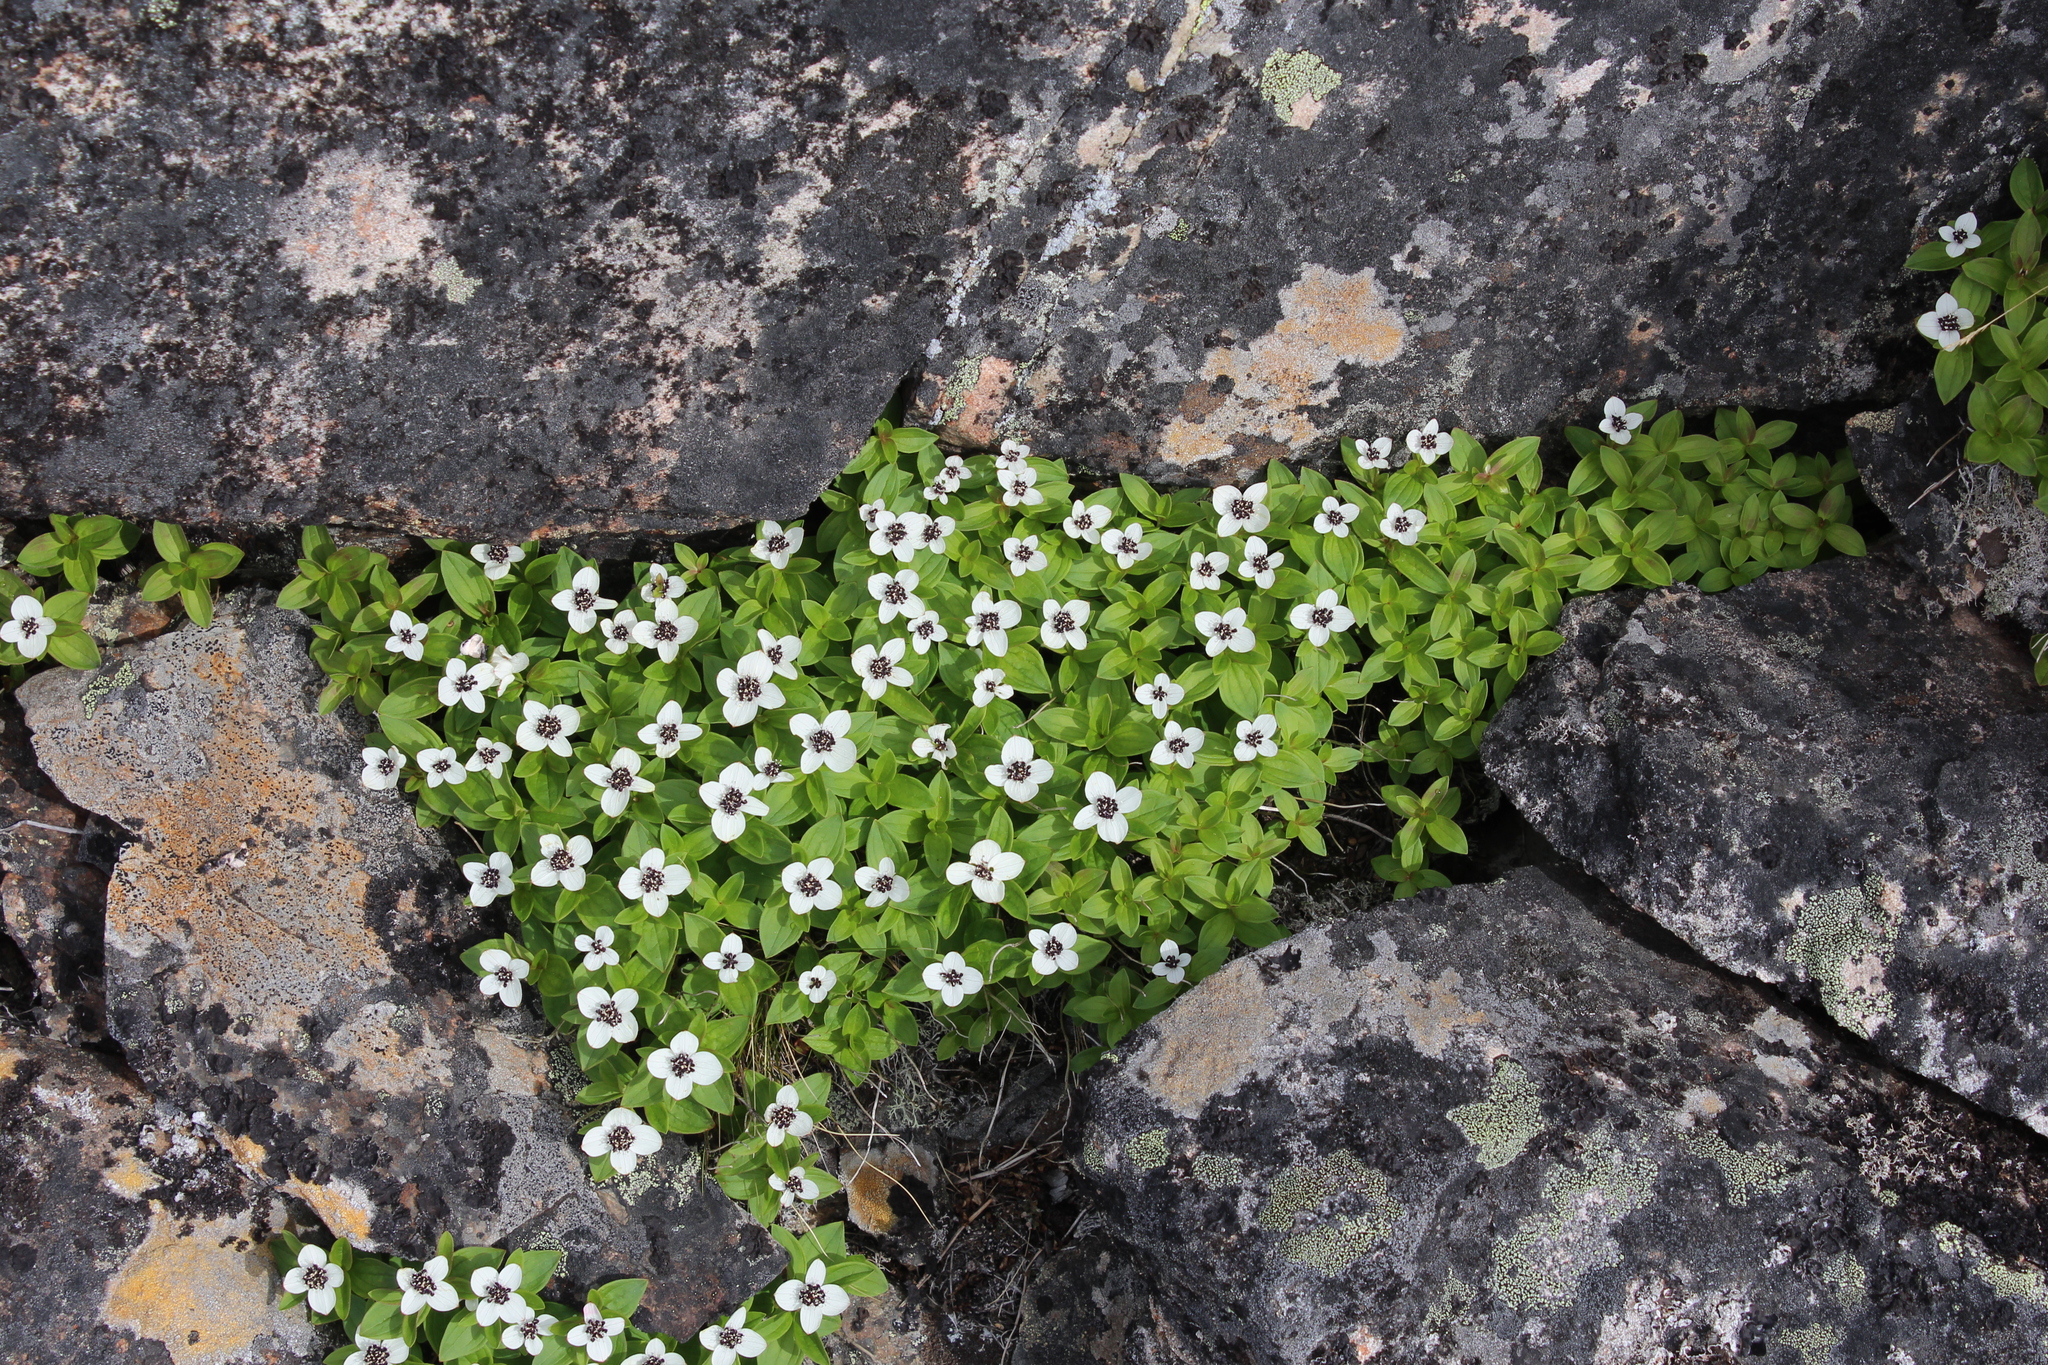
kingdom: Plantae
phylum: Tracheophyta
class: Magnoliopsida
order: Cornales
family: Cornaceae
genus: Cornus
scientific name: Cornus suecica
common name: Dwarf cornel
